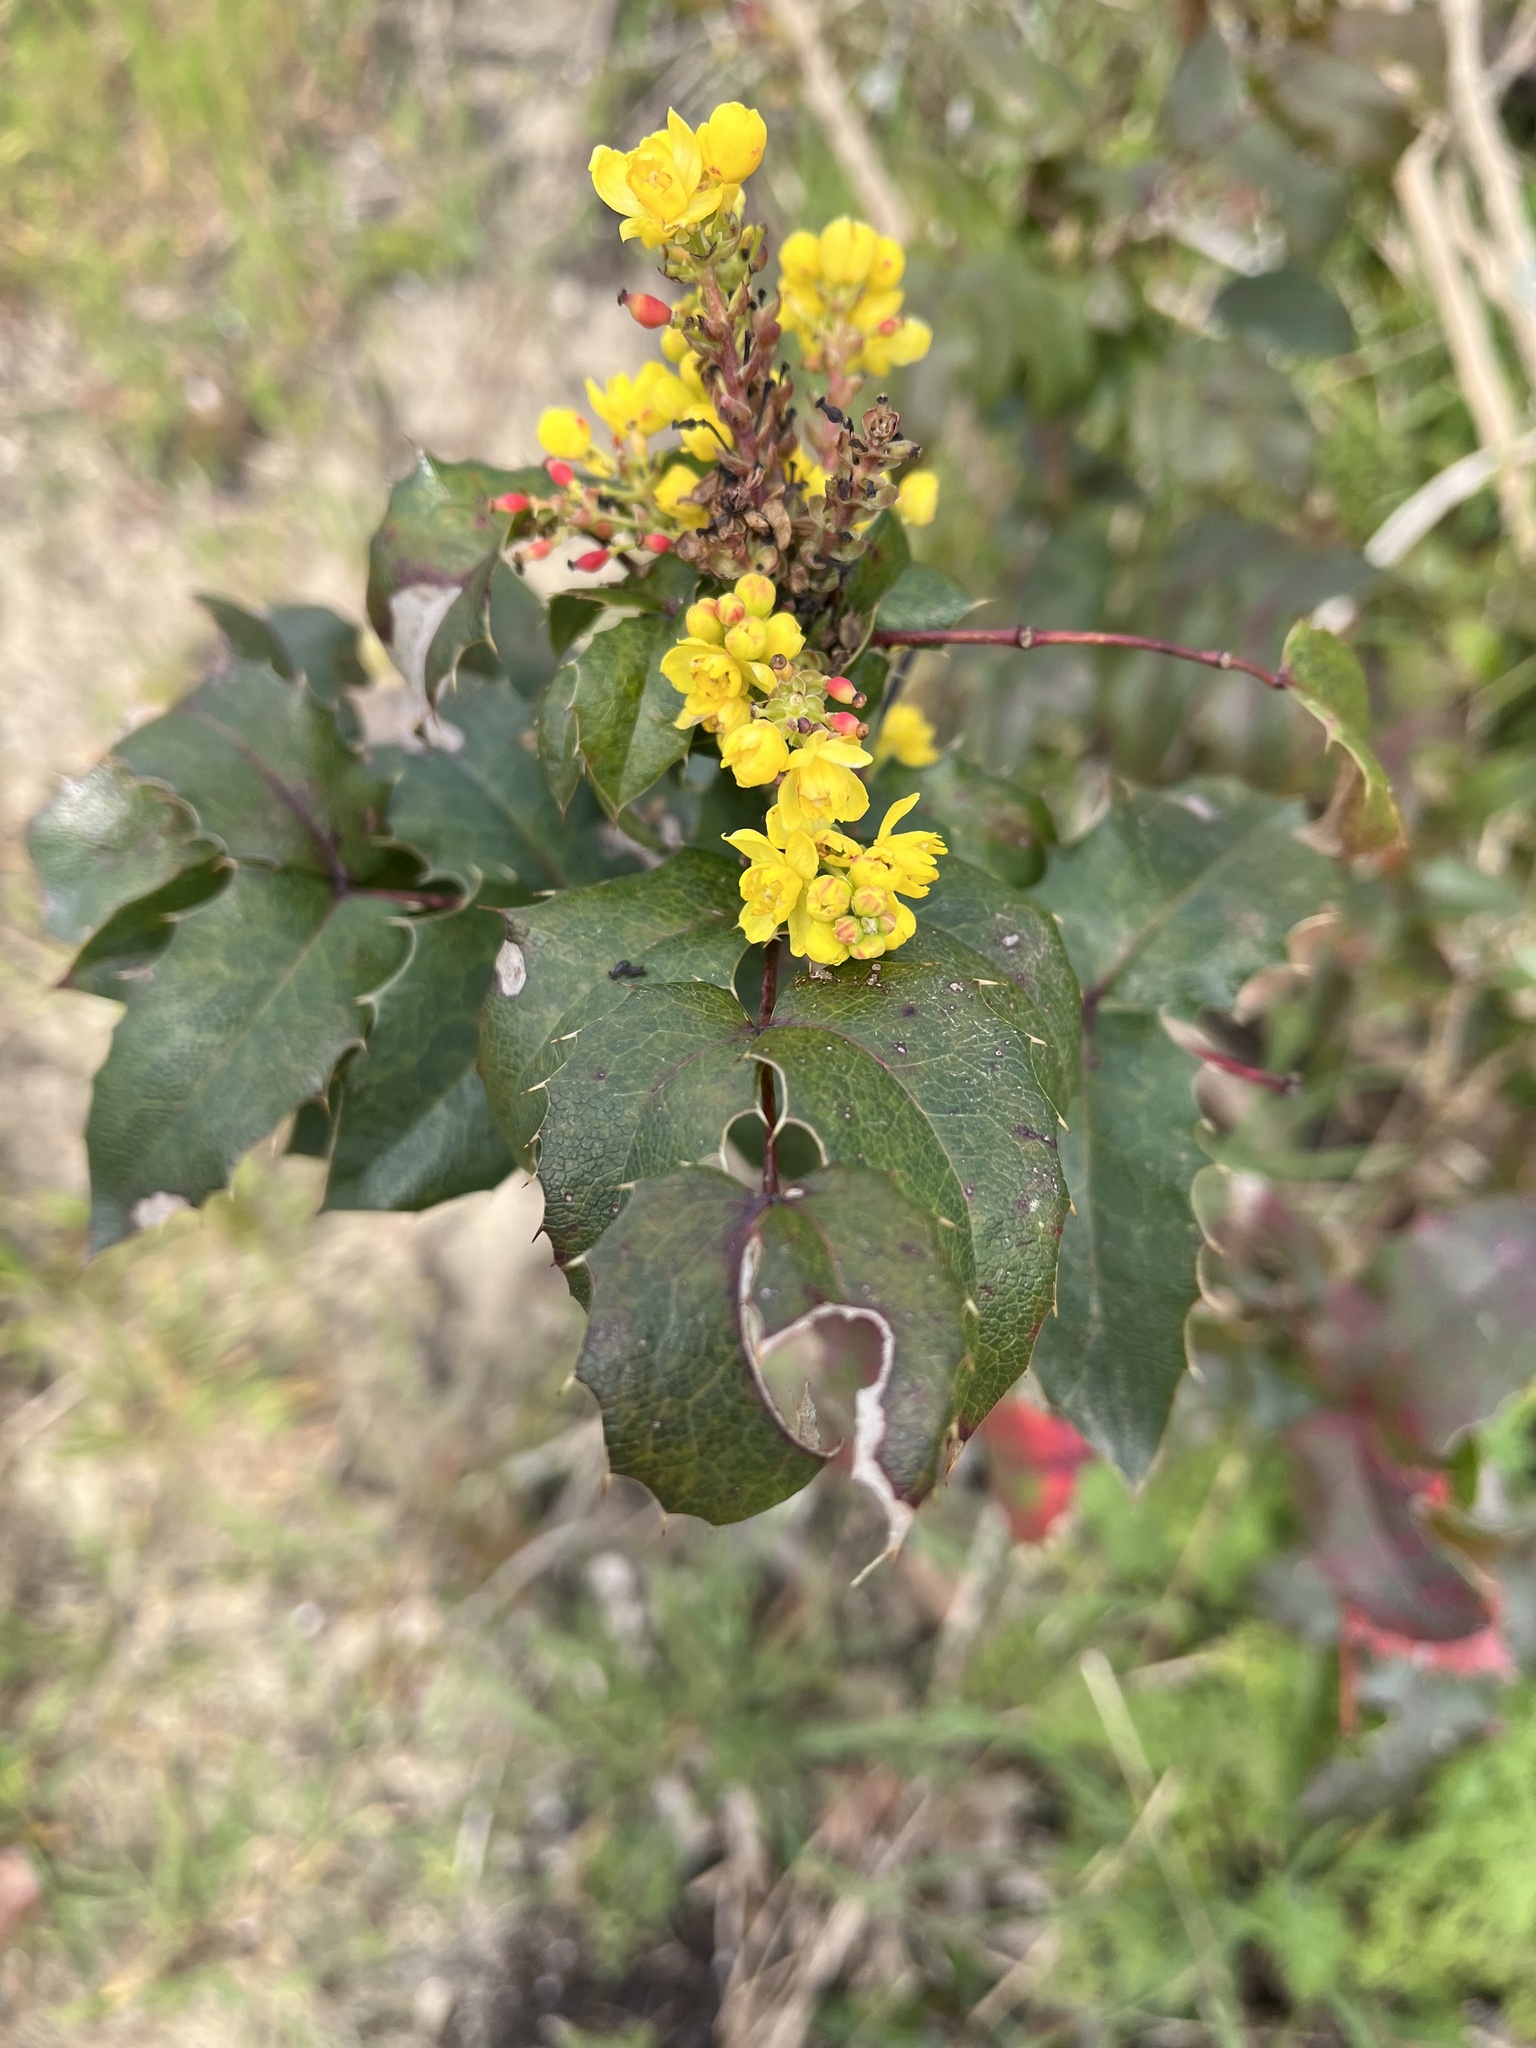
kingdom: Plantae
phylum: Tracheophyta
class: Magnoliopsida
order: Ranunculales
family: Berberidaceae
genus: Mahonia
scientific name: Mahonia aquifolium
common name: Oregon-grape
